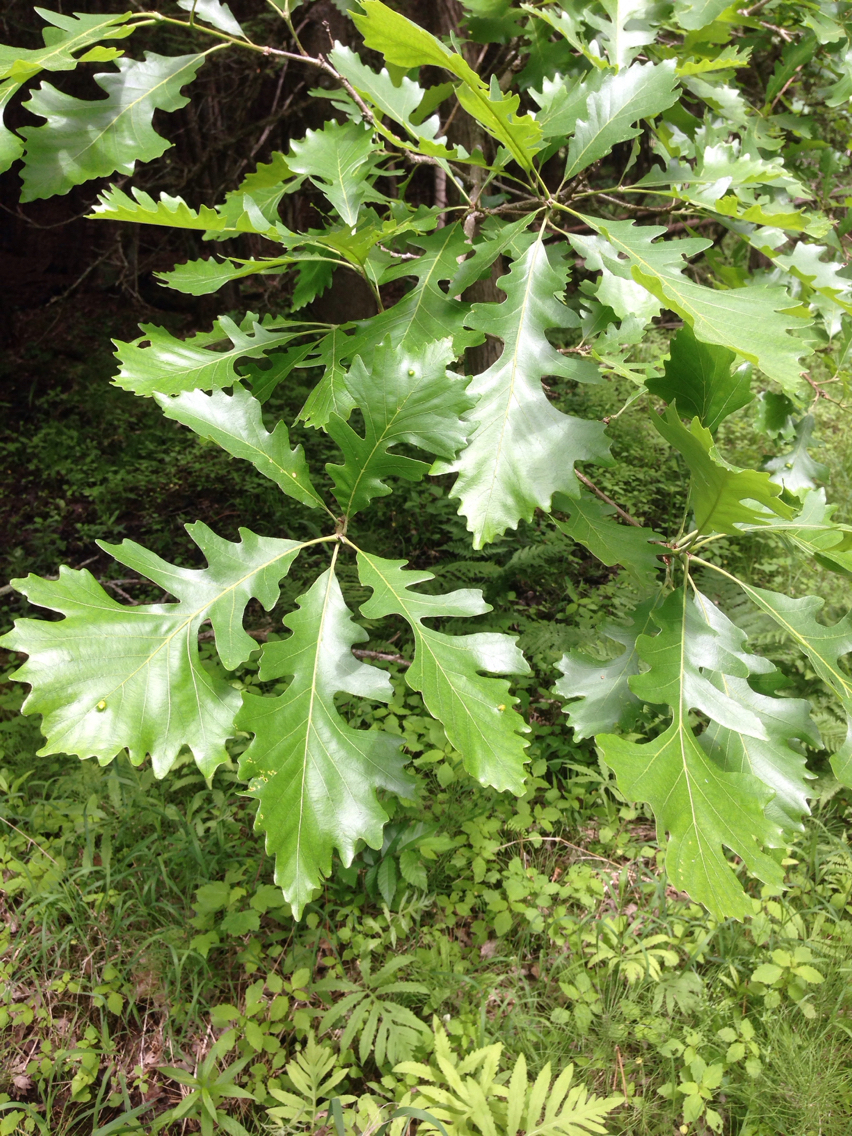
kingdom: Plantae
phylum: Tracheophyta
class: Magnoliopsida
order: Fagales
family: Fagaceae
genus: Quercus
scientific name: Quercus macrocarpa
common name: Bur oak
